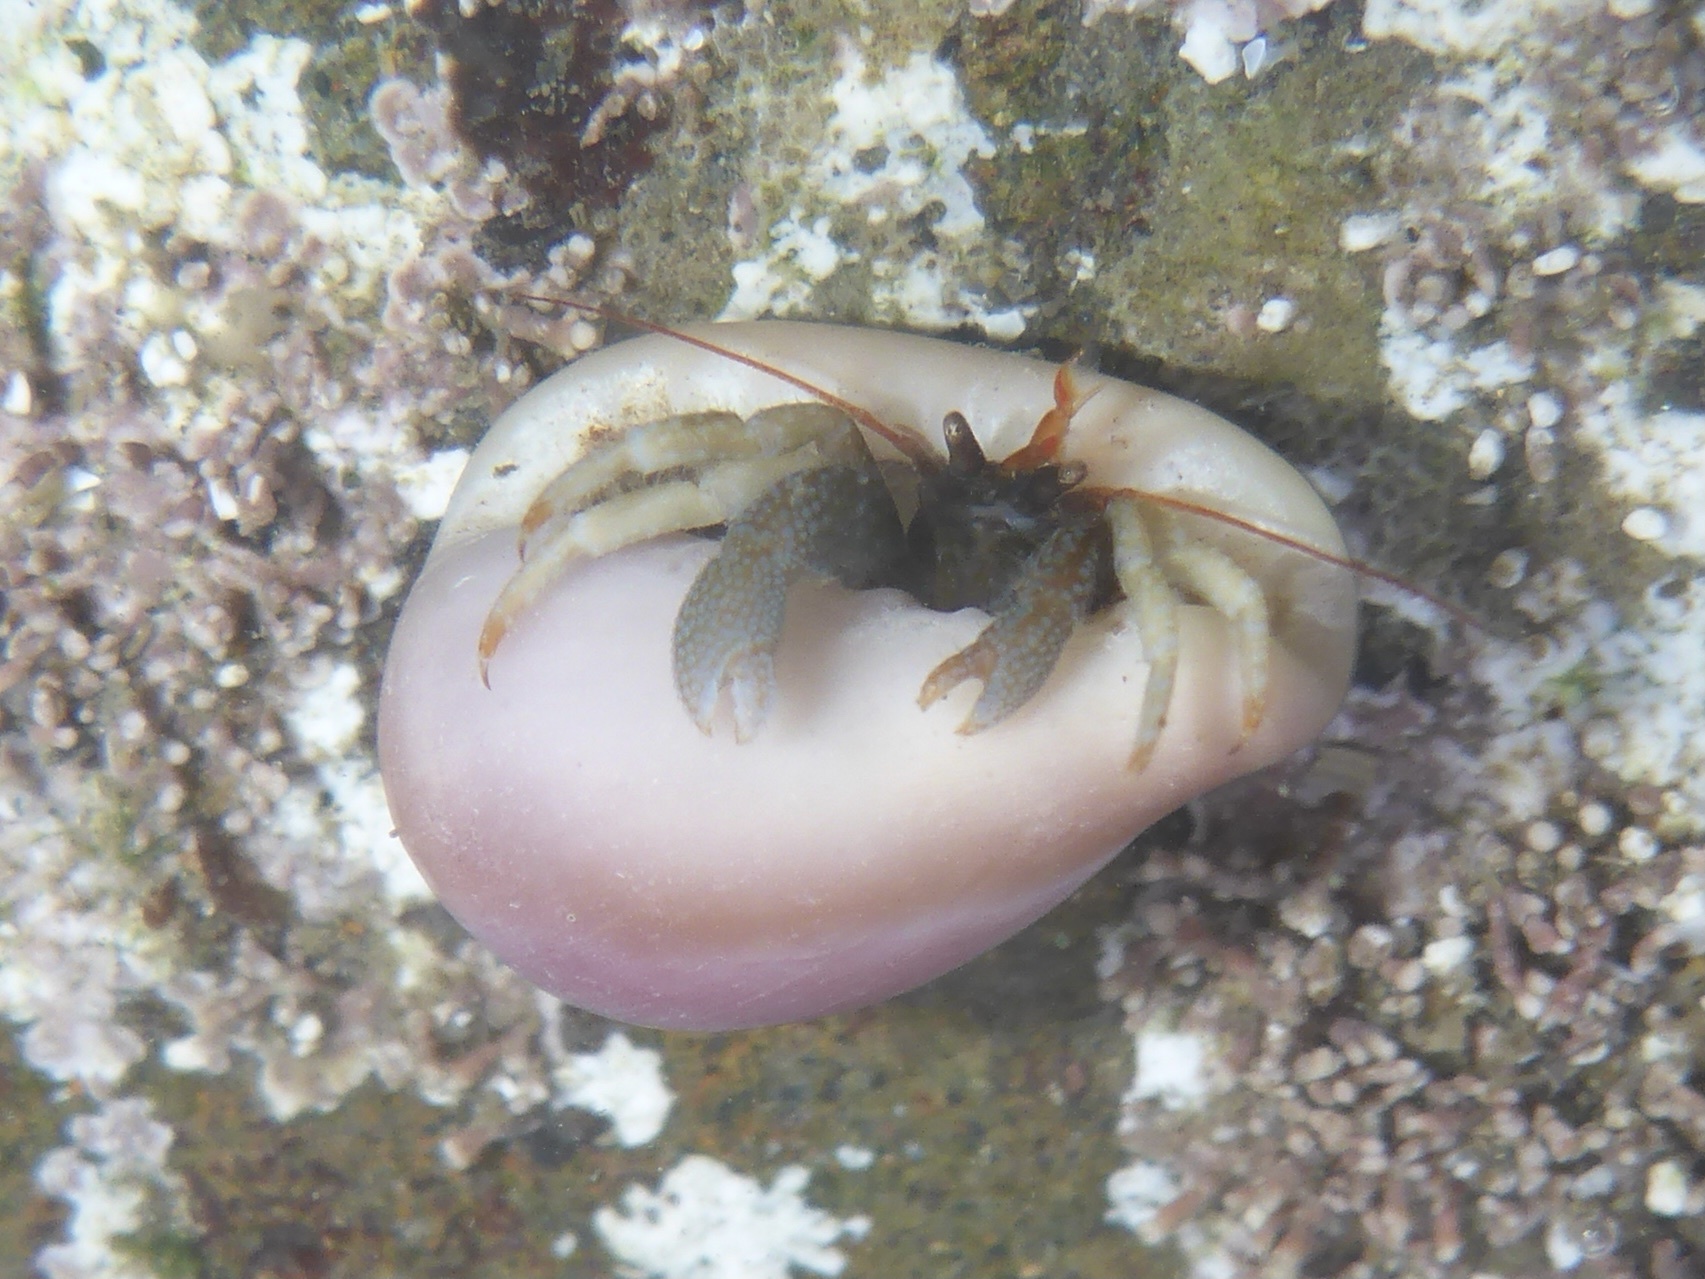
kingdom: Animalia
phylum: Arthropoda
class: Malacostraca
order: Decapoda
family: Paguridae
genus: Pagurus
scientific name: Pagurus granosimanus
